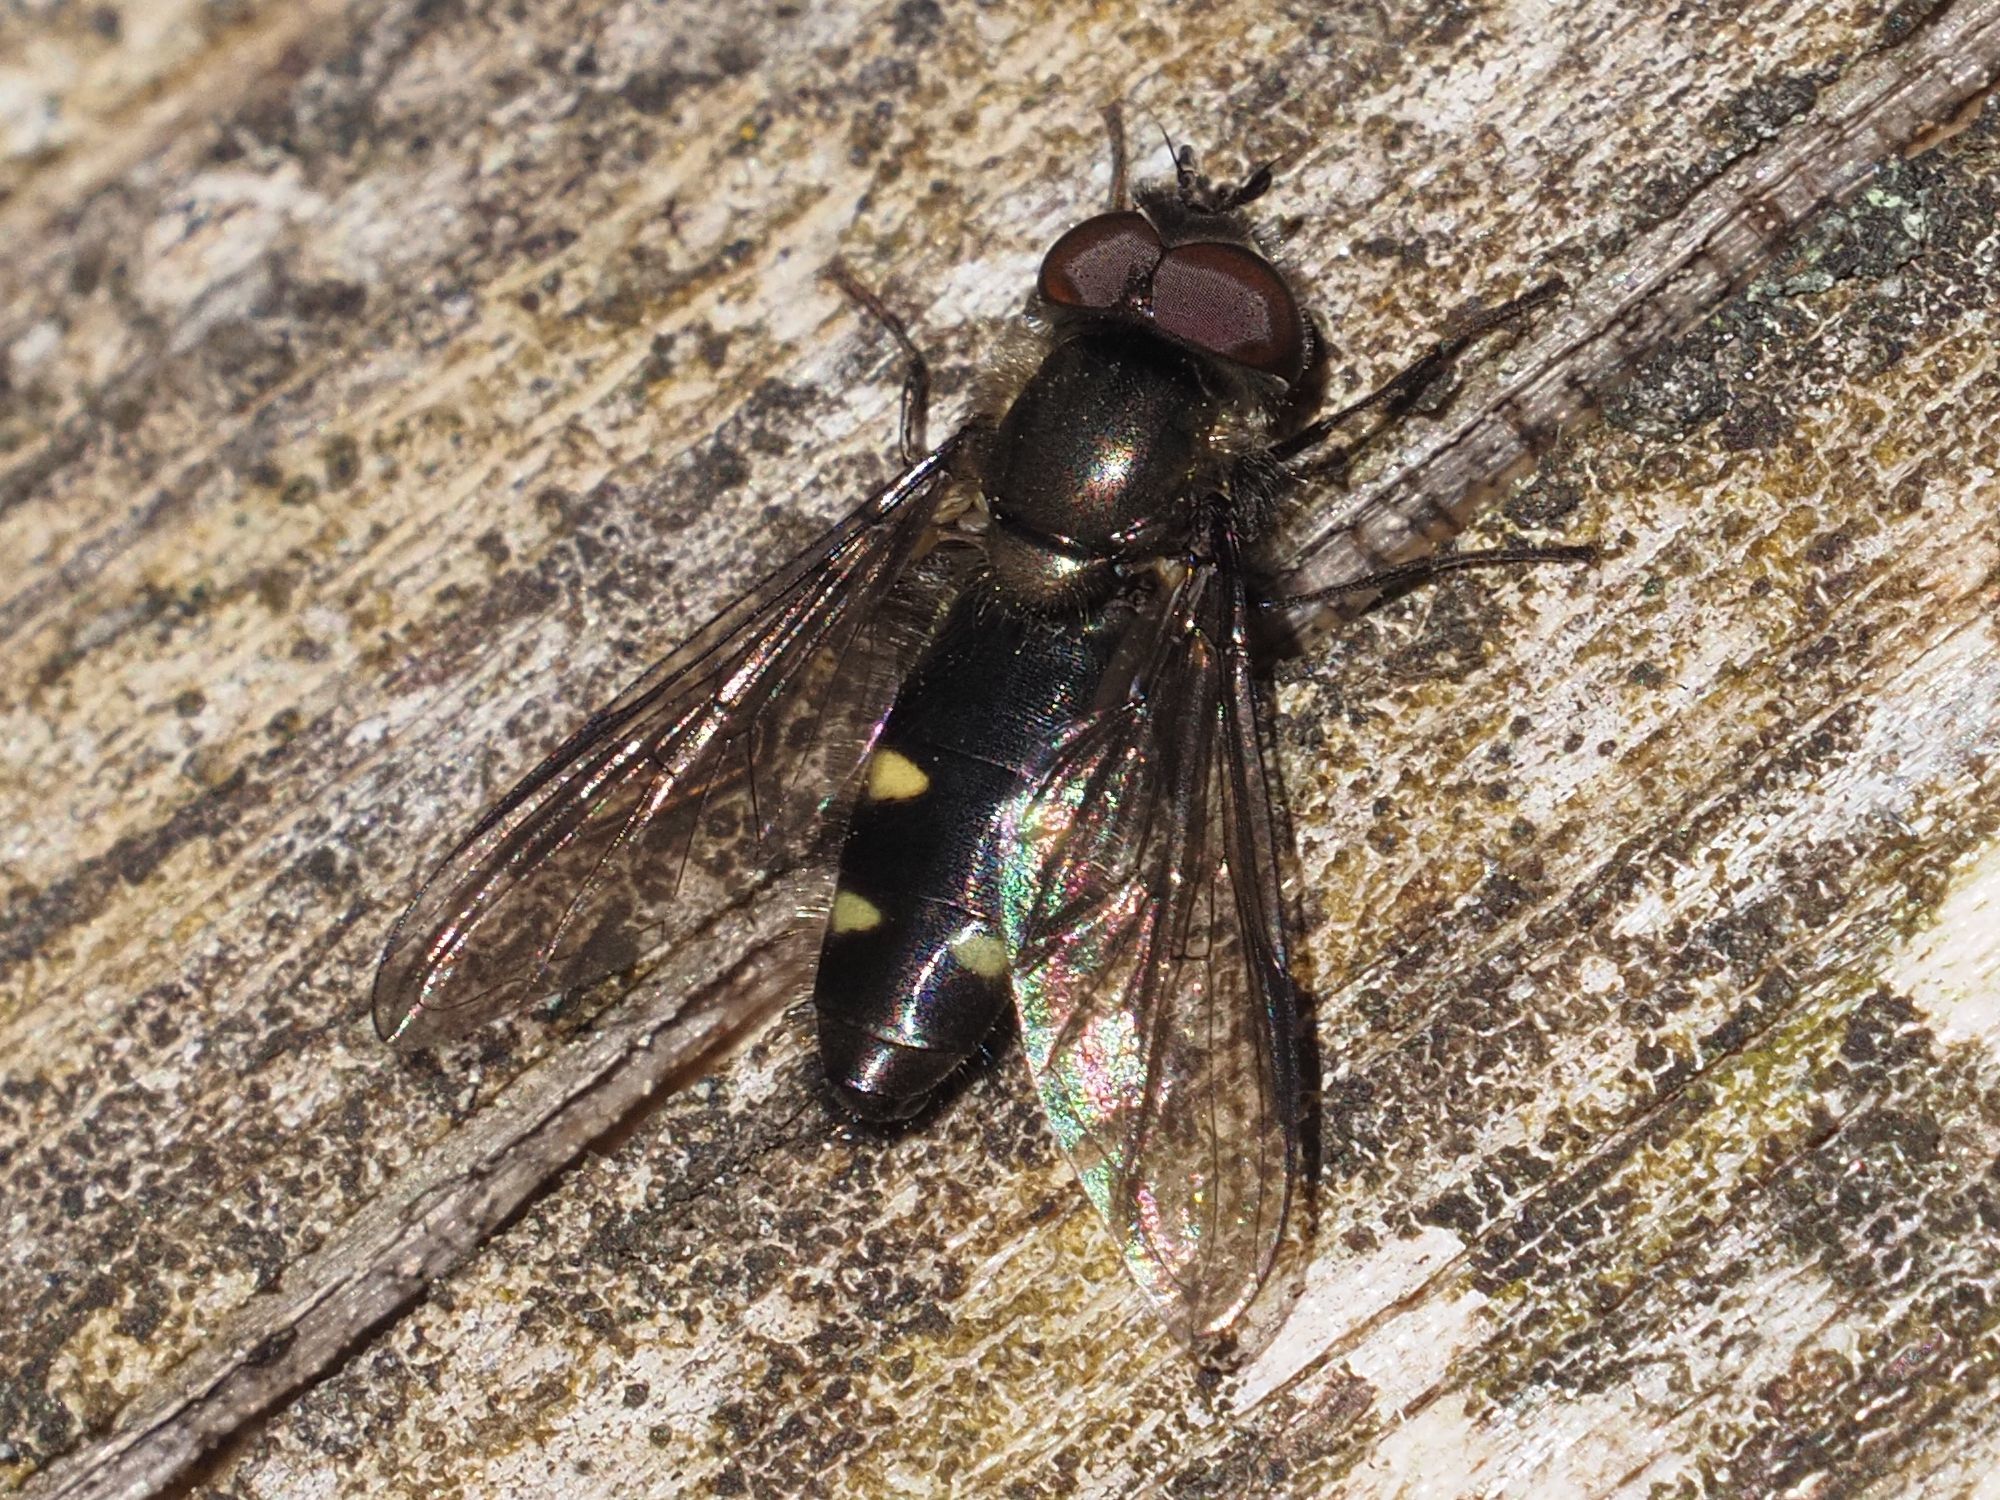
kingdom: Animalia
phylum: Arthropoda
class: Insecta
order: Diptera
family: Syrphidae
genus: Melangyna
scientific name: Melangyna quadrimaculata
